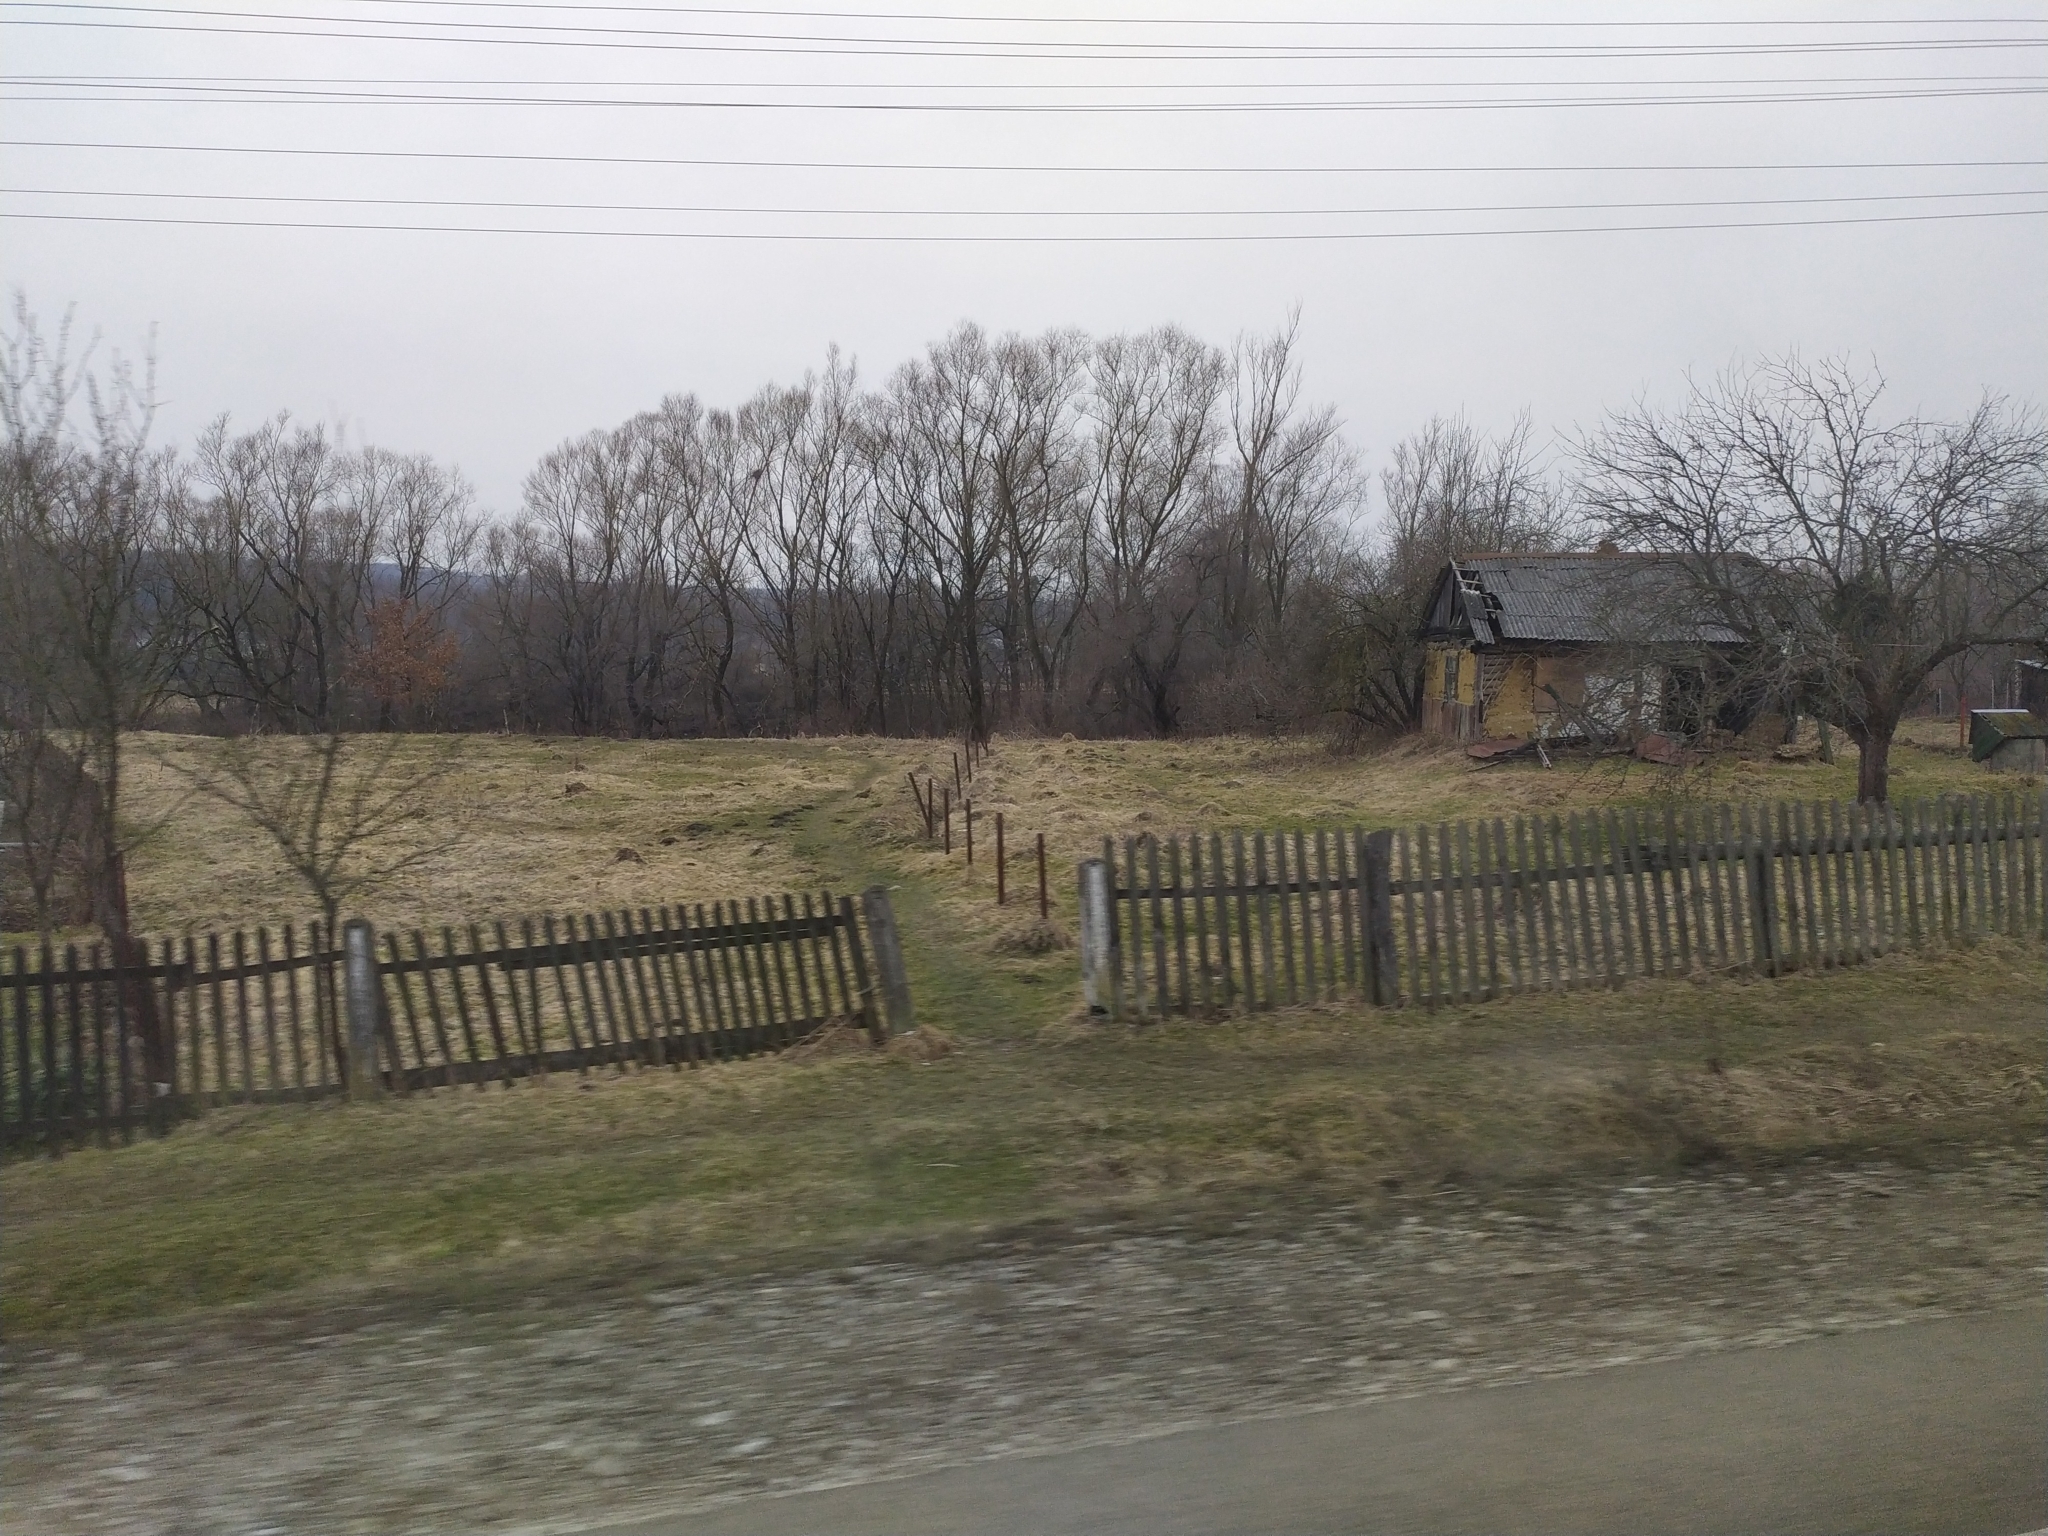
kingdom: Animalia
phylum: Chordata
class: Mammalia
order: Soricomorpha
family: Talpidae
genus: Talpa
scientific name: Talpa europaea
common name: European mole
